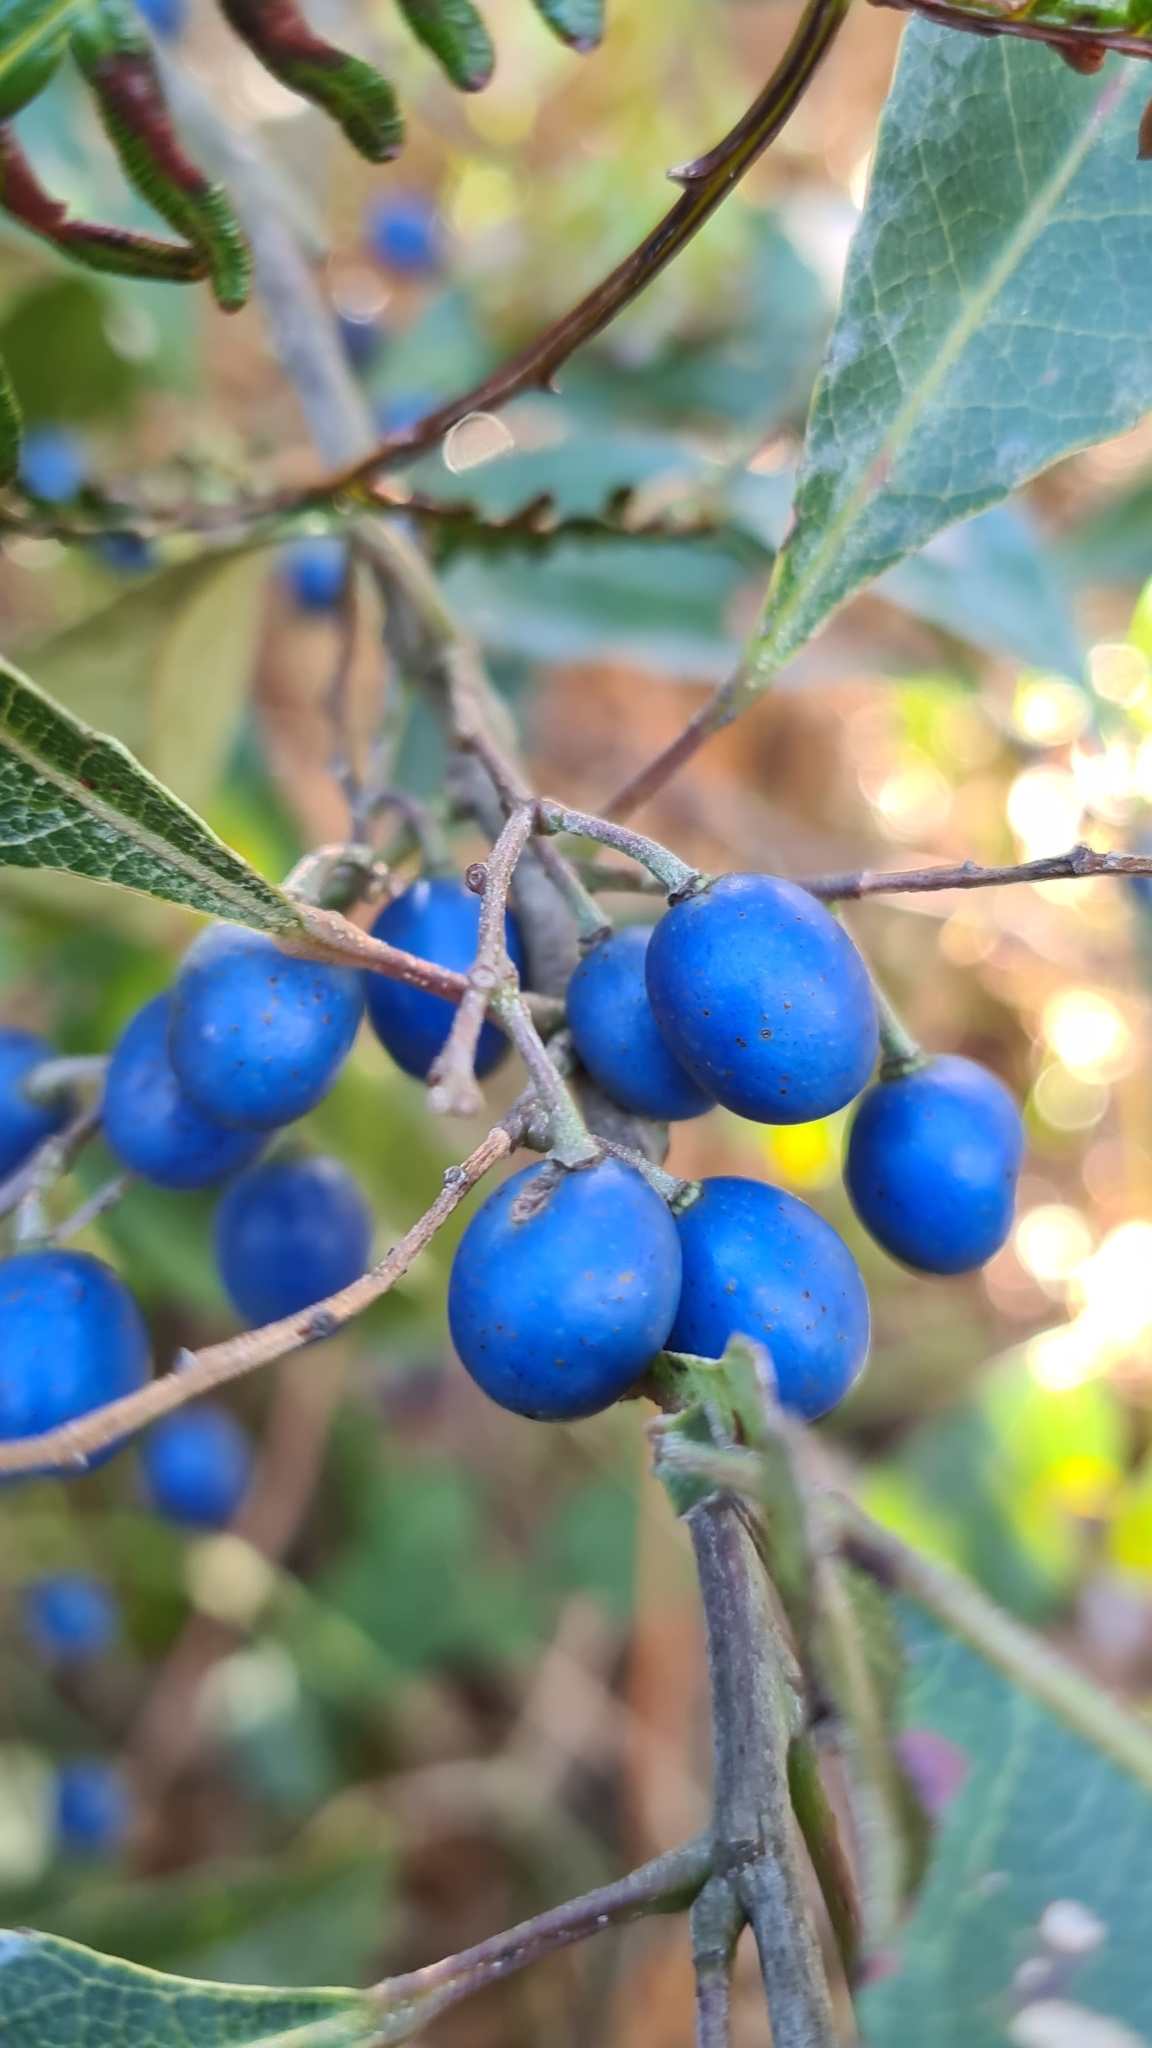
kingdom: Plantae
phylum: Tracheophyta
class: Magnoliopsida
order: Oxalidales
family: Elaeocarpaceae
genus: Elaeocarpus
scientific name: Elaeocarpus reticulatus
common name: Ash quandong
